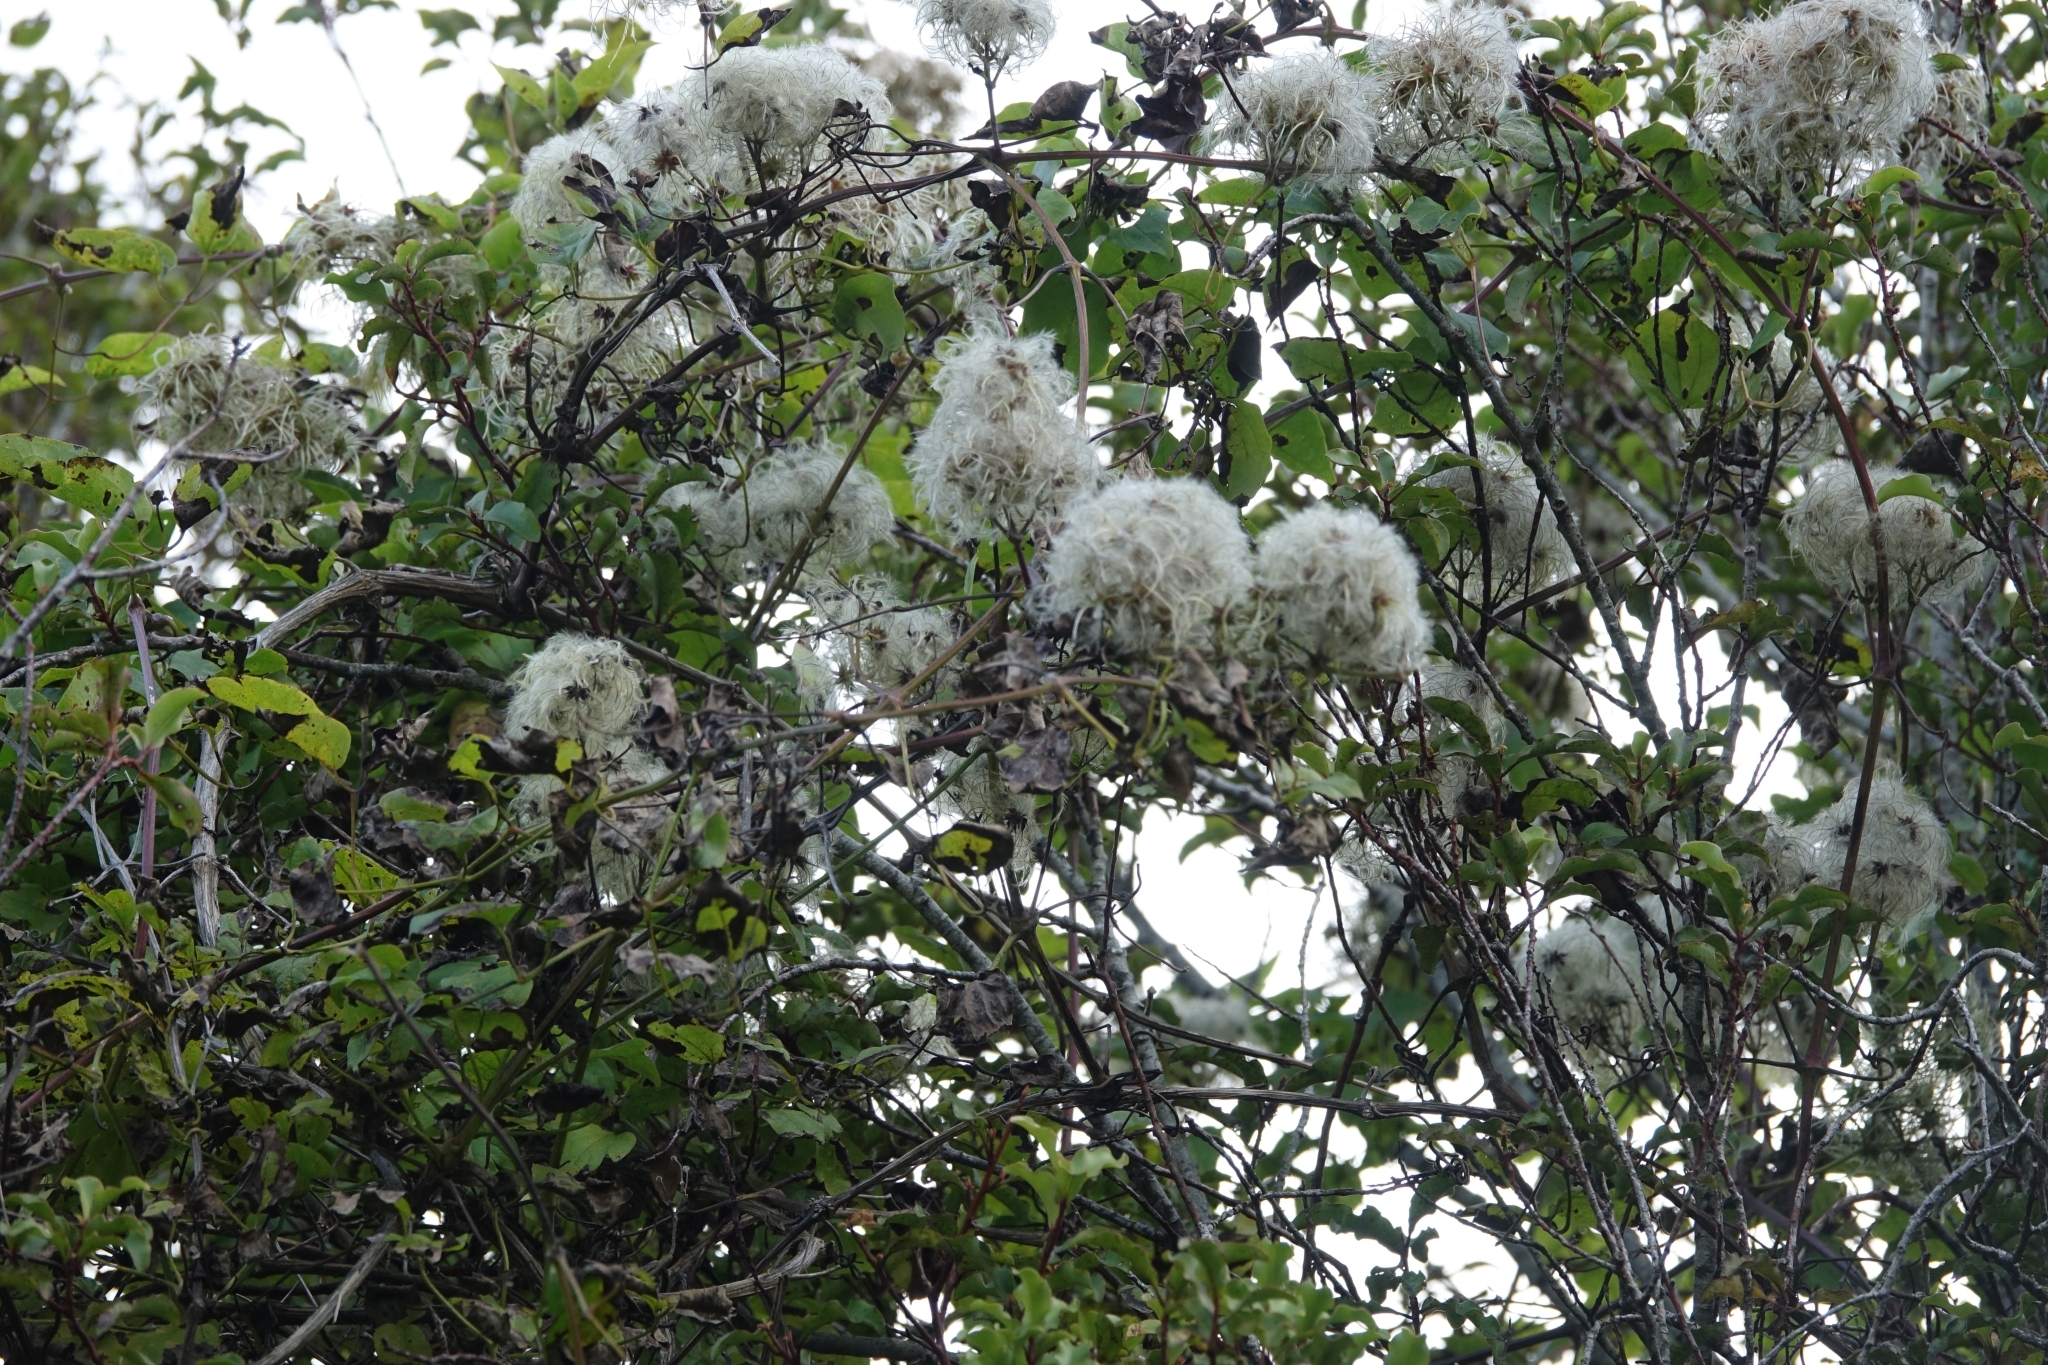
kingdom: Plantae
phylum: Tracheophyta
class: Magnoliopsida
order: Ranunculales
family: Ranunculaceae
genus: Clematis
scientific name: Clematis vitalba
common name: Evergreen clematis
